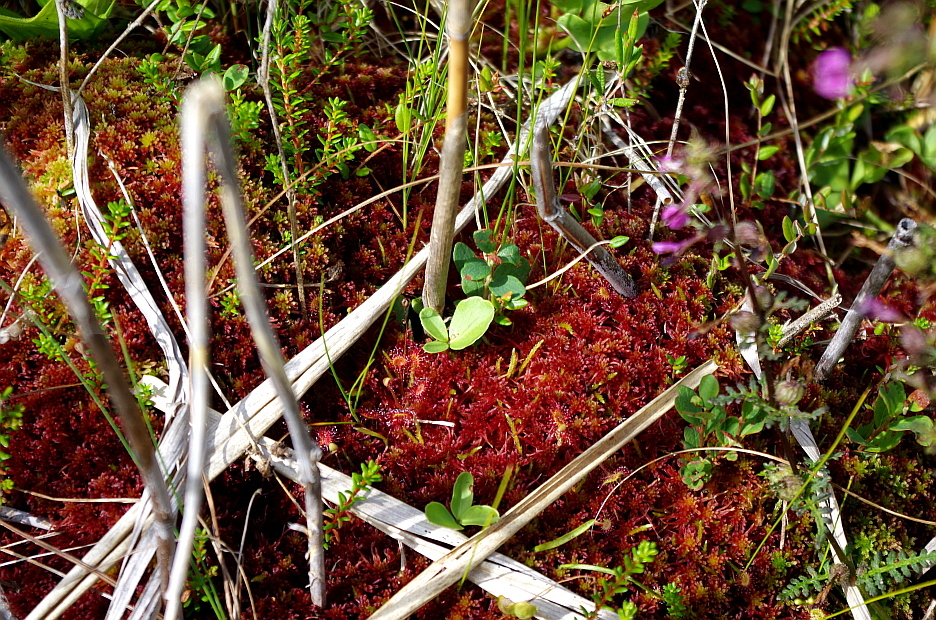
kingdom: Plantae
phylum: Tracheophyta
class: Magnoliopsida
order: Caryophyllales
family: Droseraceae
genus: Drosera
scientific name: Drosera rotundifolia
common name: Round-leaved sundew
